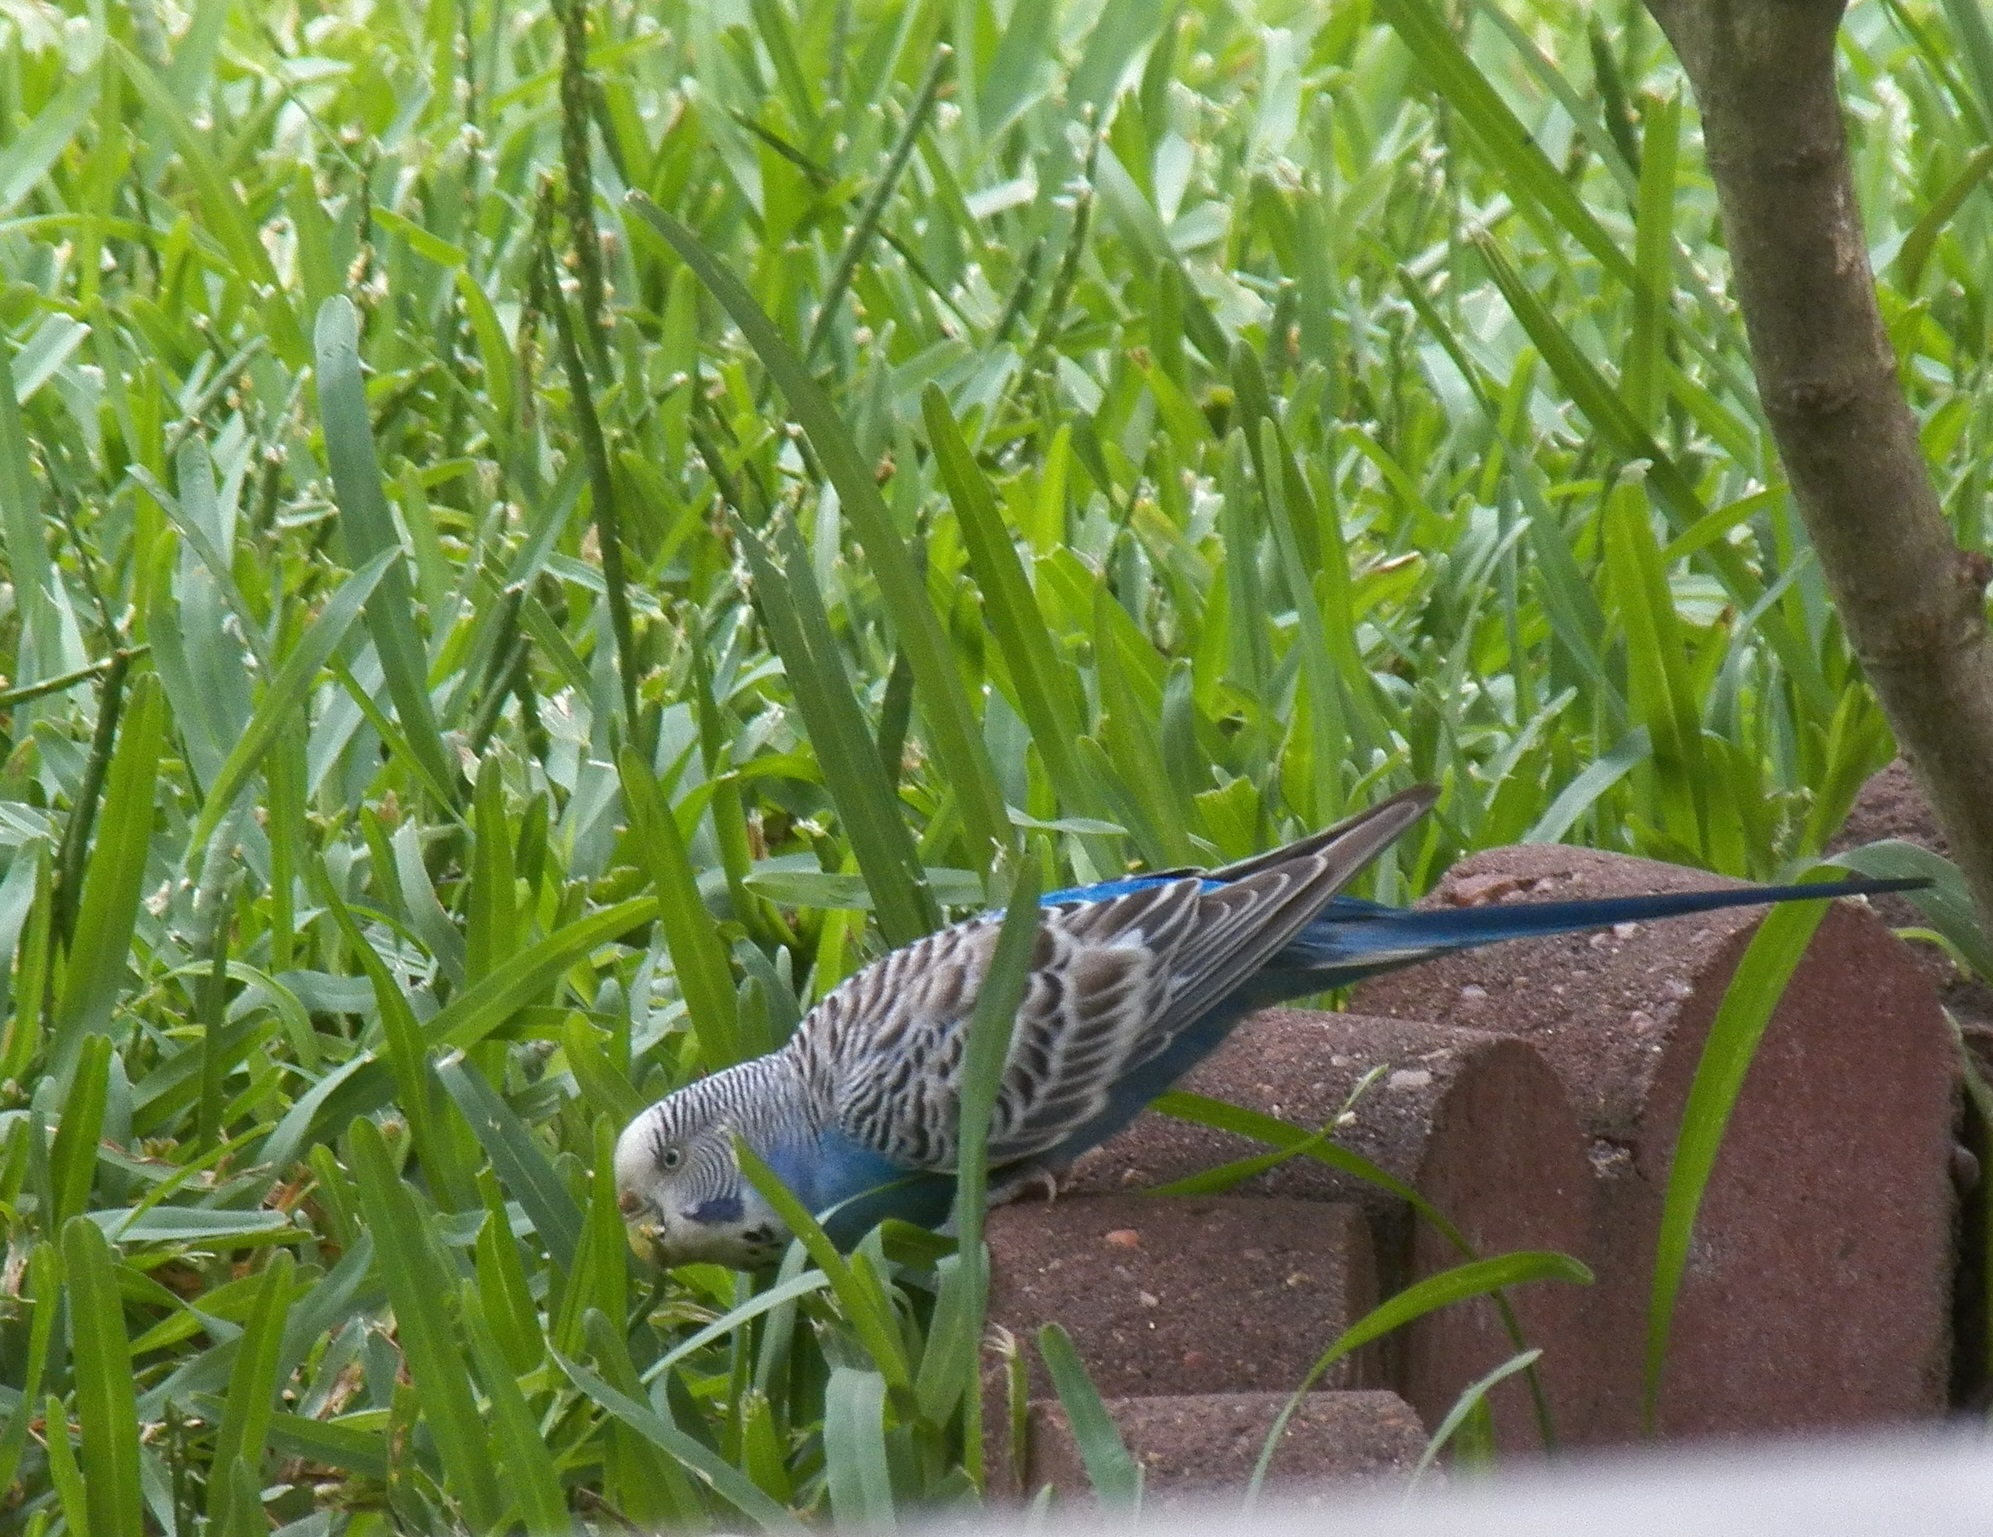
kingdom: Animalia
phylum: Chordata
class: Aves
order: Psittaciformes
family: Psittacidae
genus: Melopsittacus
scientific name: Melopsittacus undulatus
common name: Budgerigar
